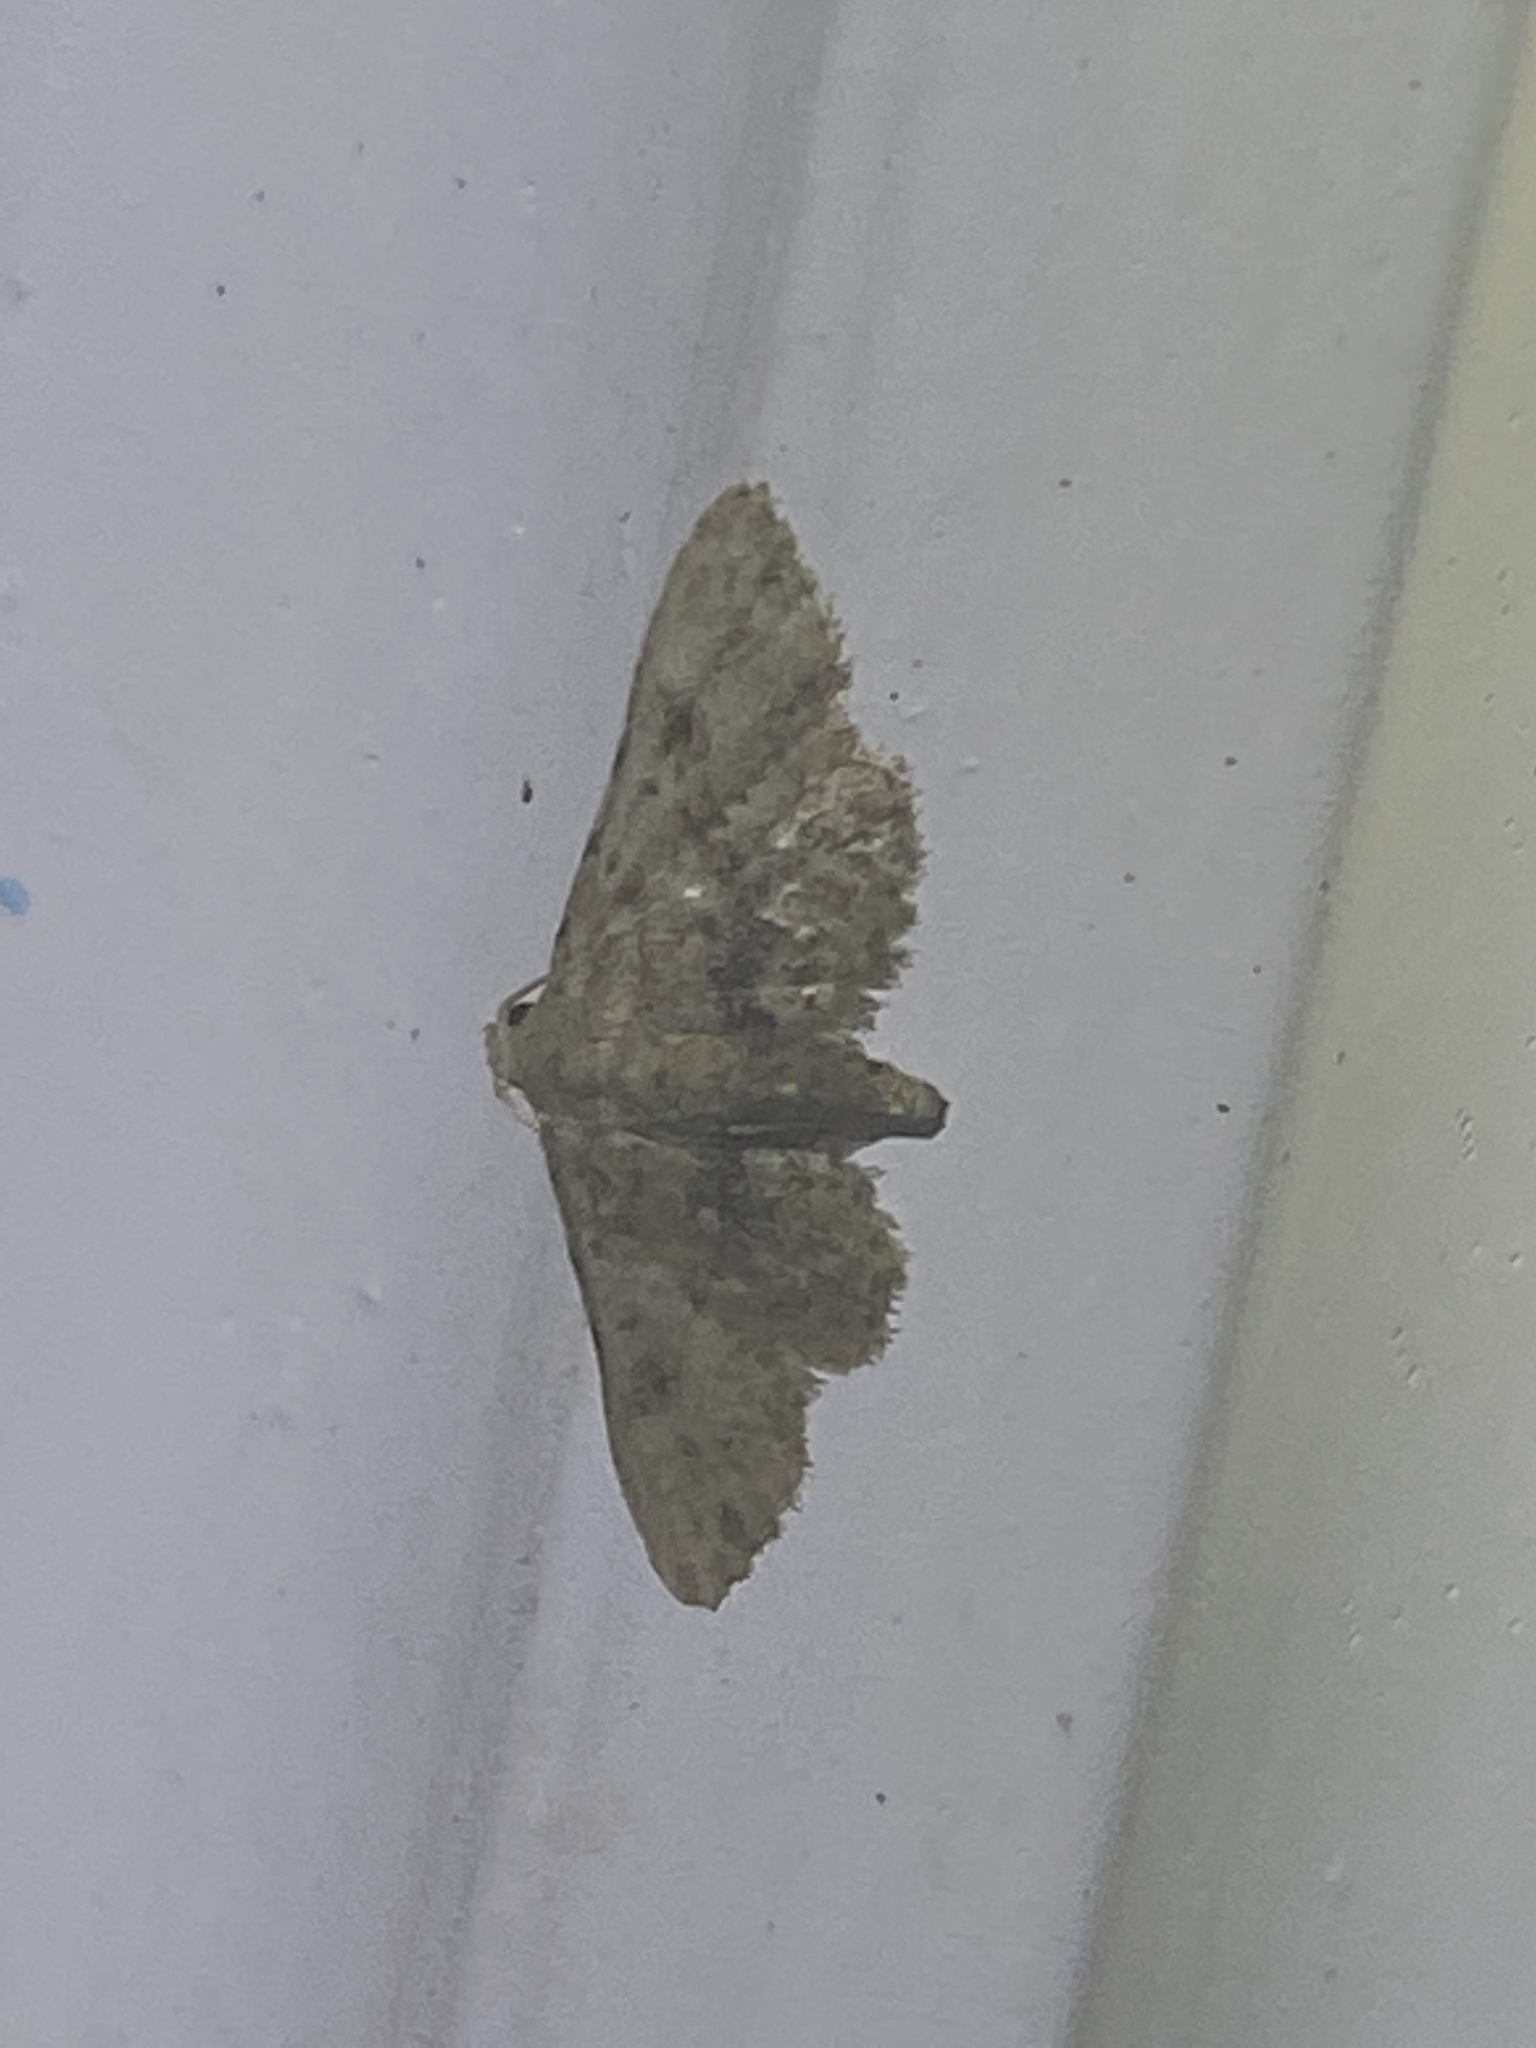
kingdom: Animalia
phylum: Arthropoda
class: Insecta
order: Lepidoptera
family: Erebidae
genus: Sigela
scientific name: Sigela brauneata
